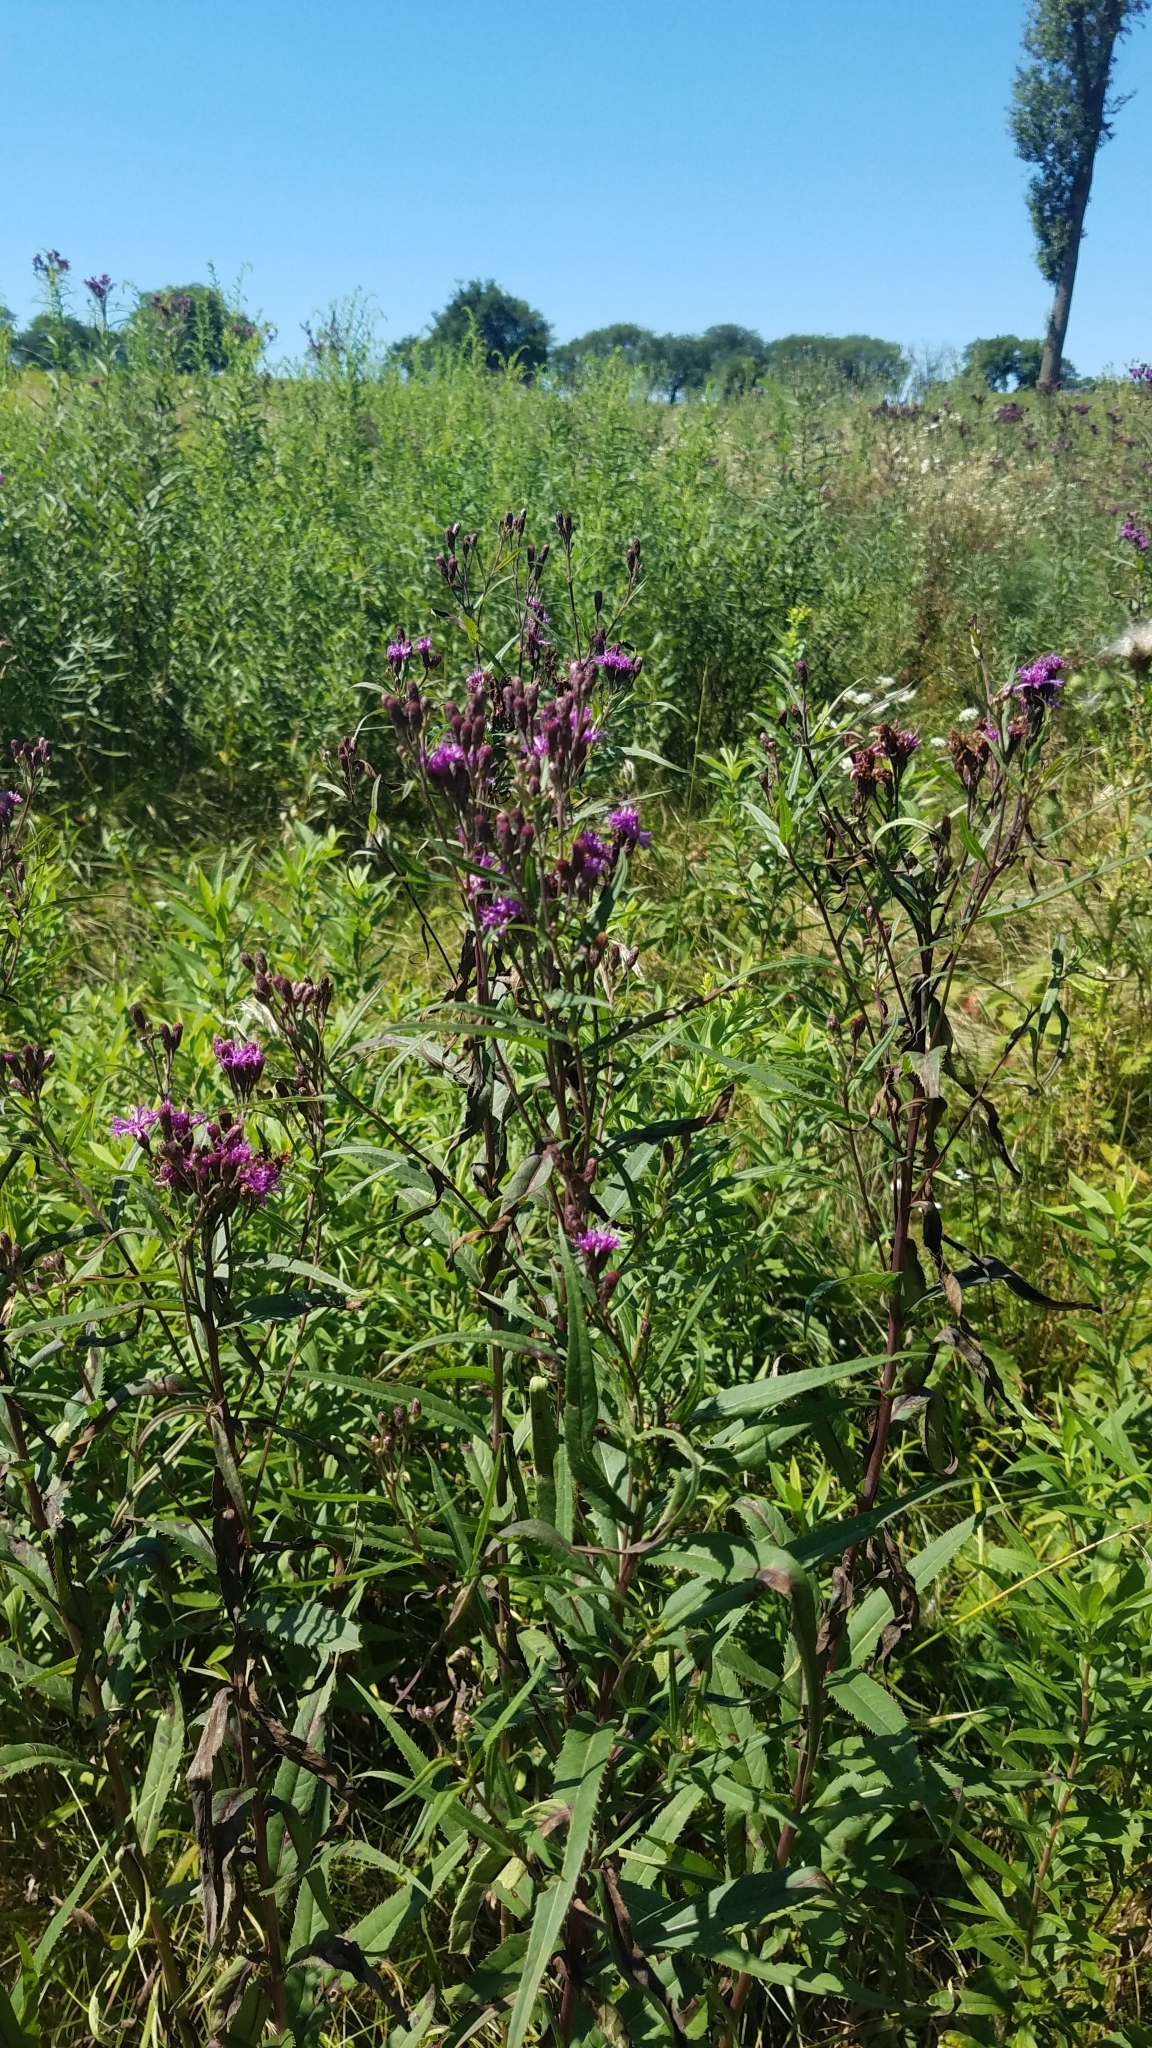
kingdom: Plantae
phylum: Tracheophyta
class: Magnoliopsida
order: Asterales
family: Asteraceae
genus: Vernonia
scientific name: Vernonia fasciculata
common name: Fascicled ironweed
